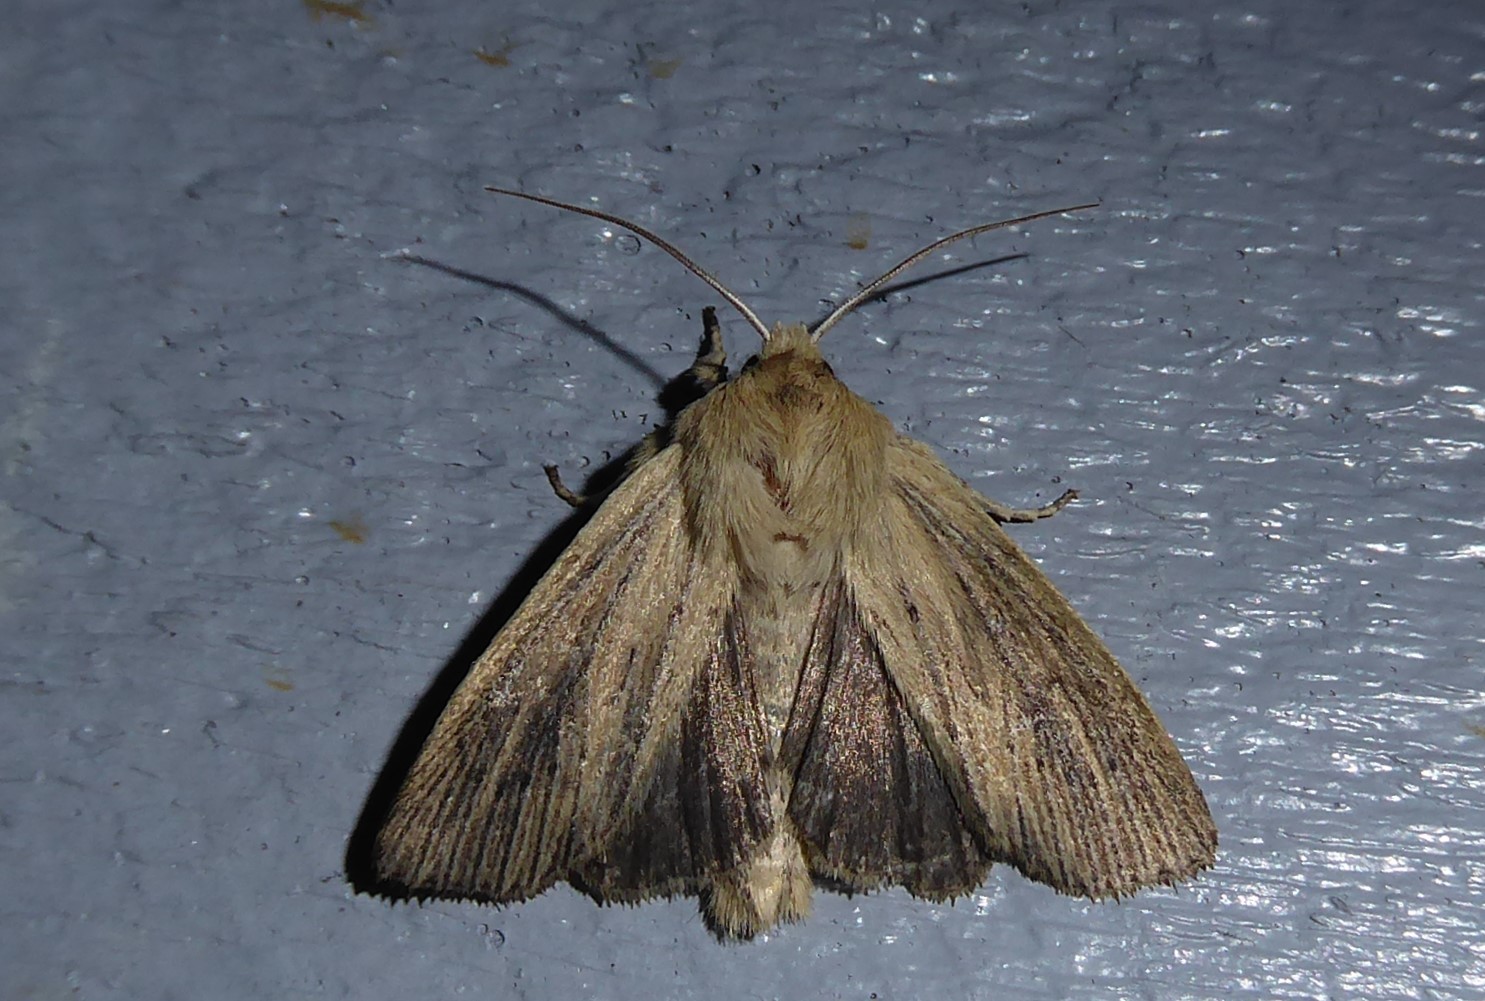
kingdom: Animalia
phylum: Arthropoda
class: Insecta
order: Lepidoptera
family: Noctuidae
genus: Ichneutica
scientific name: Ichneutica arotis
